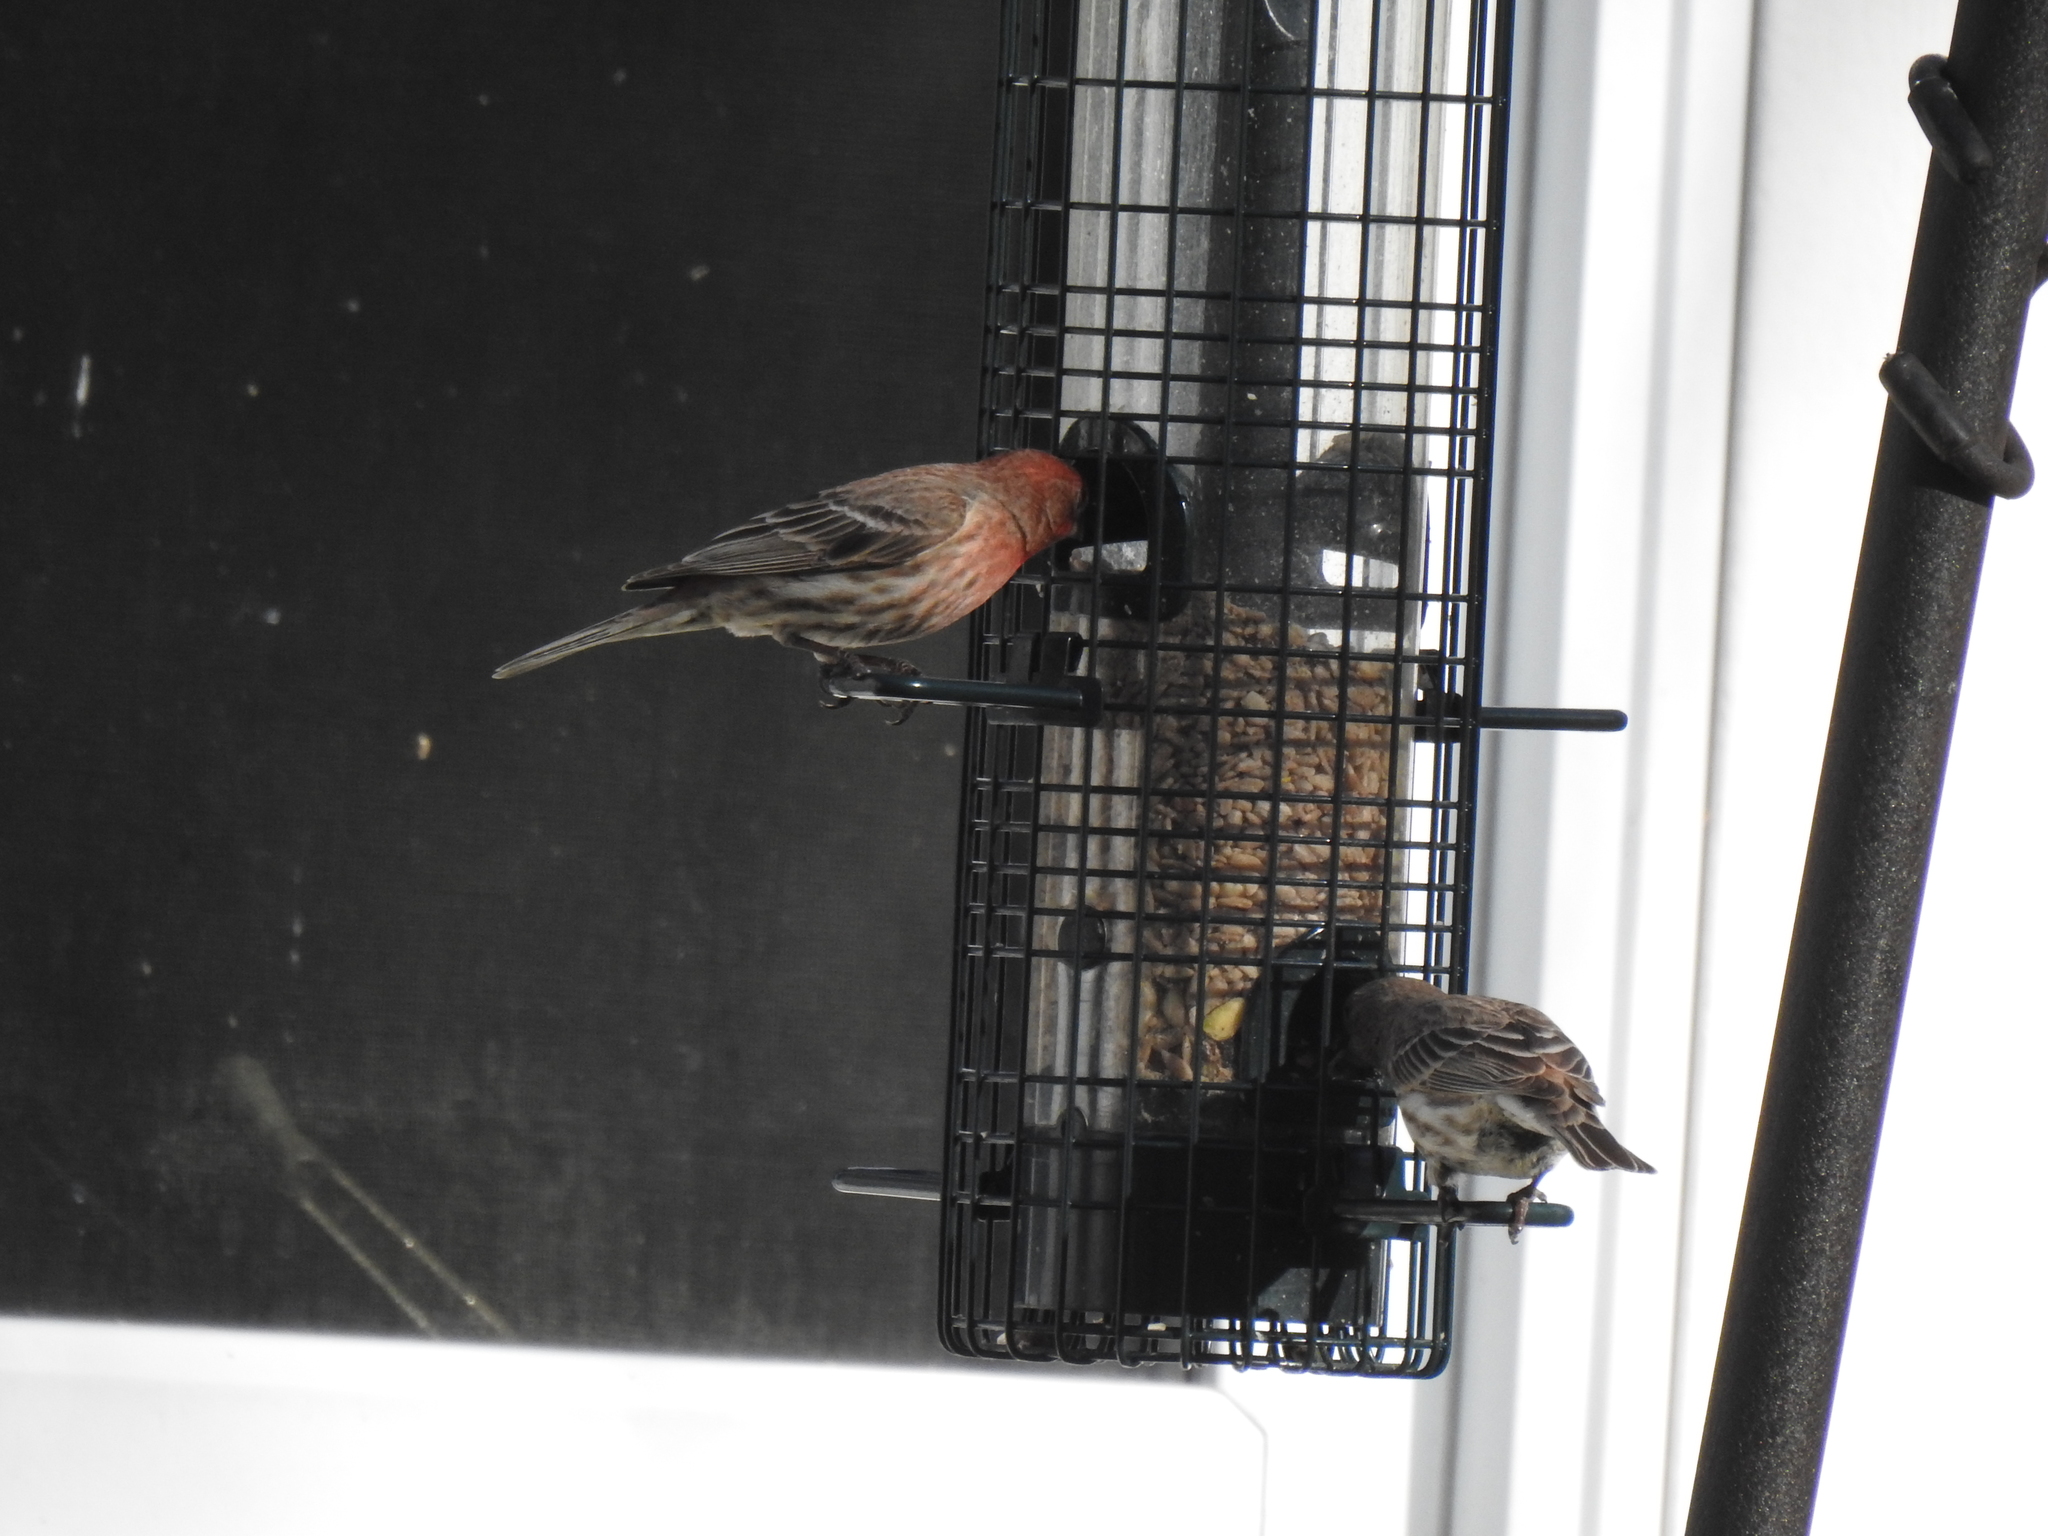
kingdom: Animalia
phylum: Chordata
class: Aves
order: Passeriformes
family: Fringillidae
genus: Haemorhous
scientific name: Haemorhous mexicanus
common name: House finch
